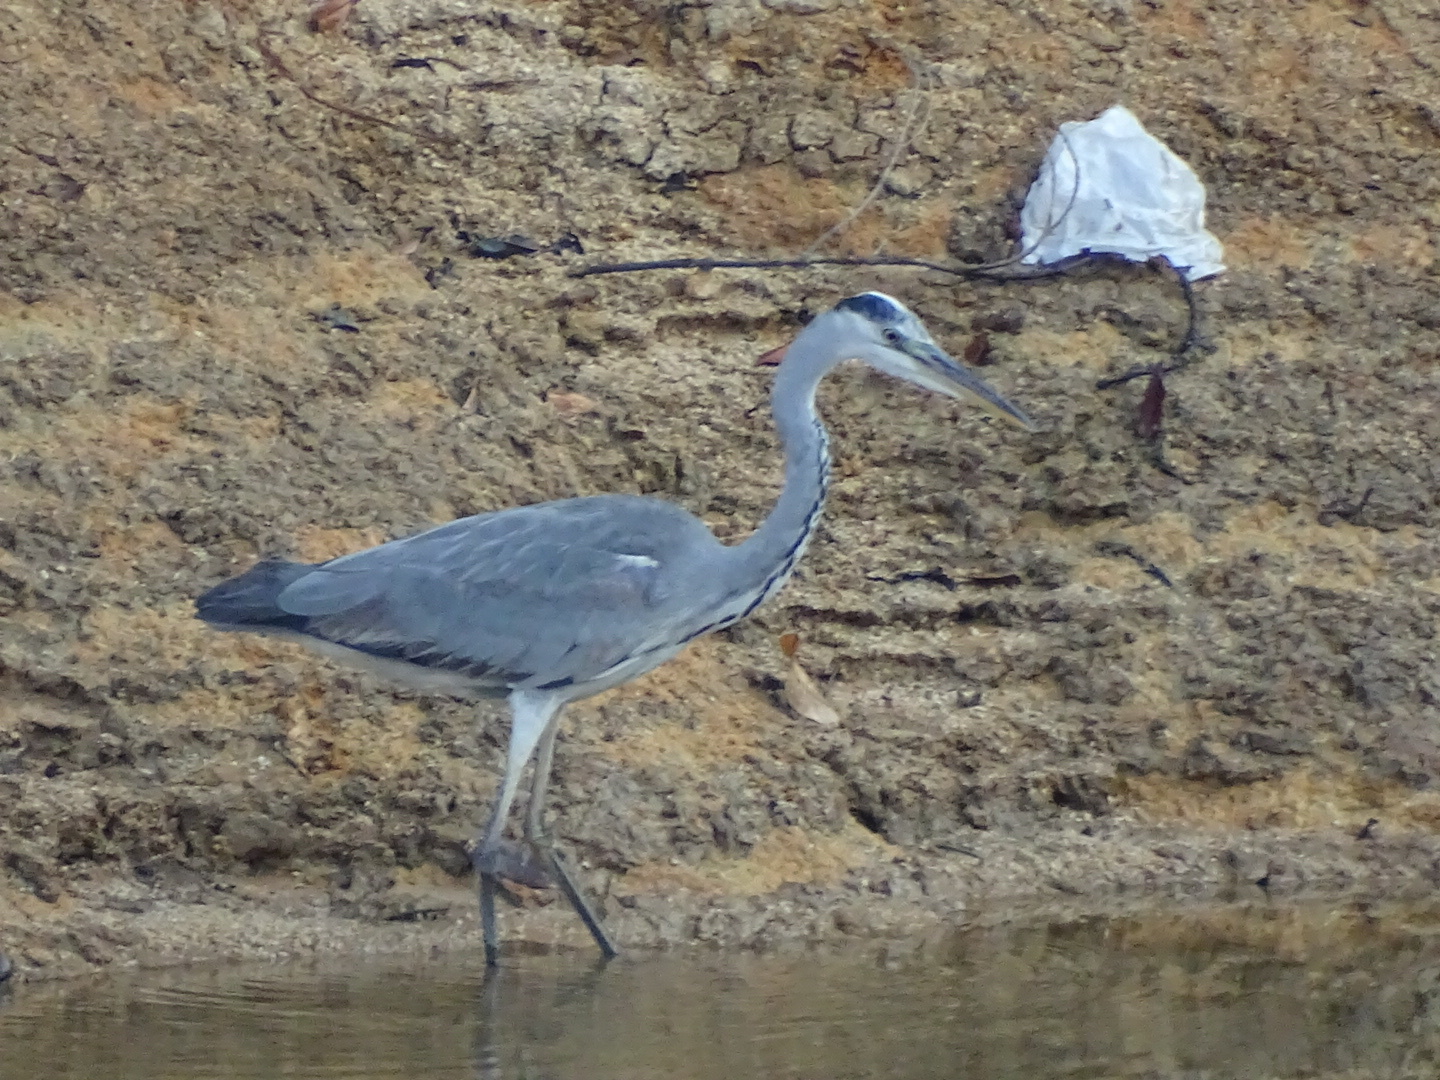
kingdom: Animalia
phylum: Chordata
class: Aves
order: Pelecaniformes
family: Ardeidae
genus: Ardea
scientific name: Ardea cinerea
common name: Grey heron
